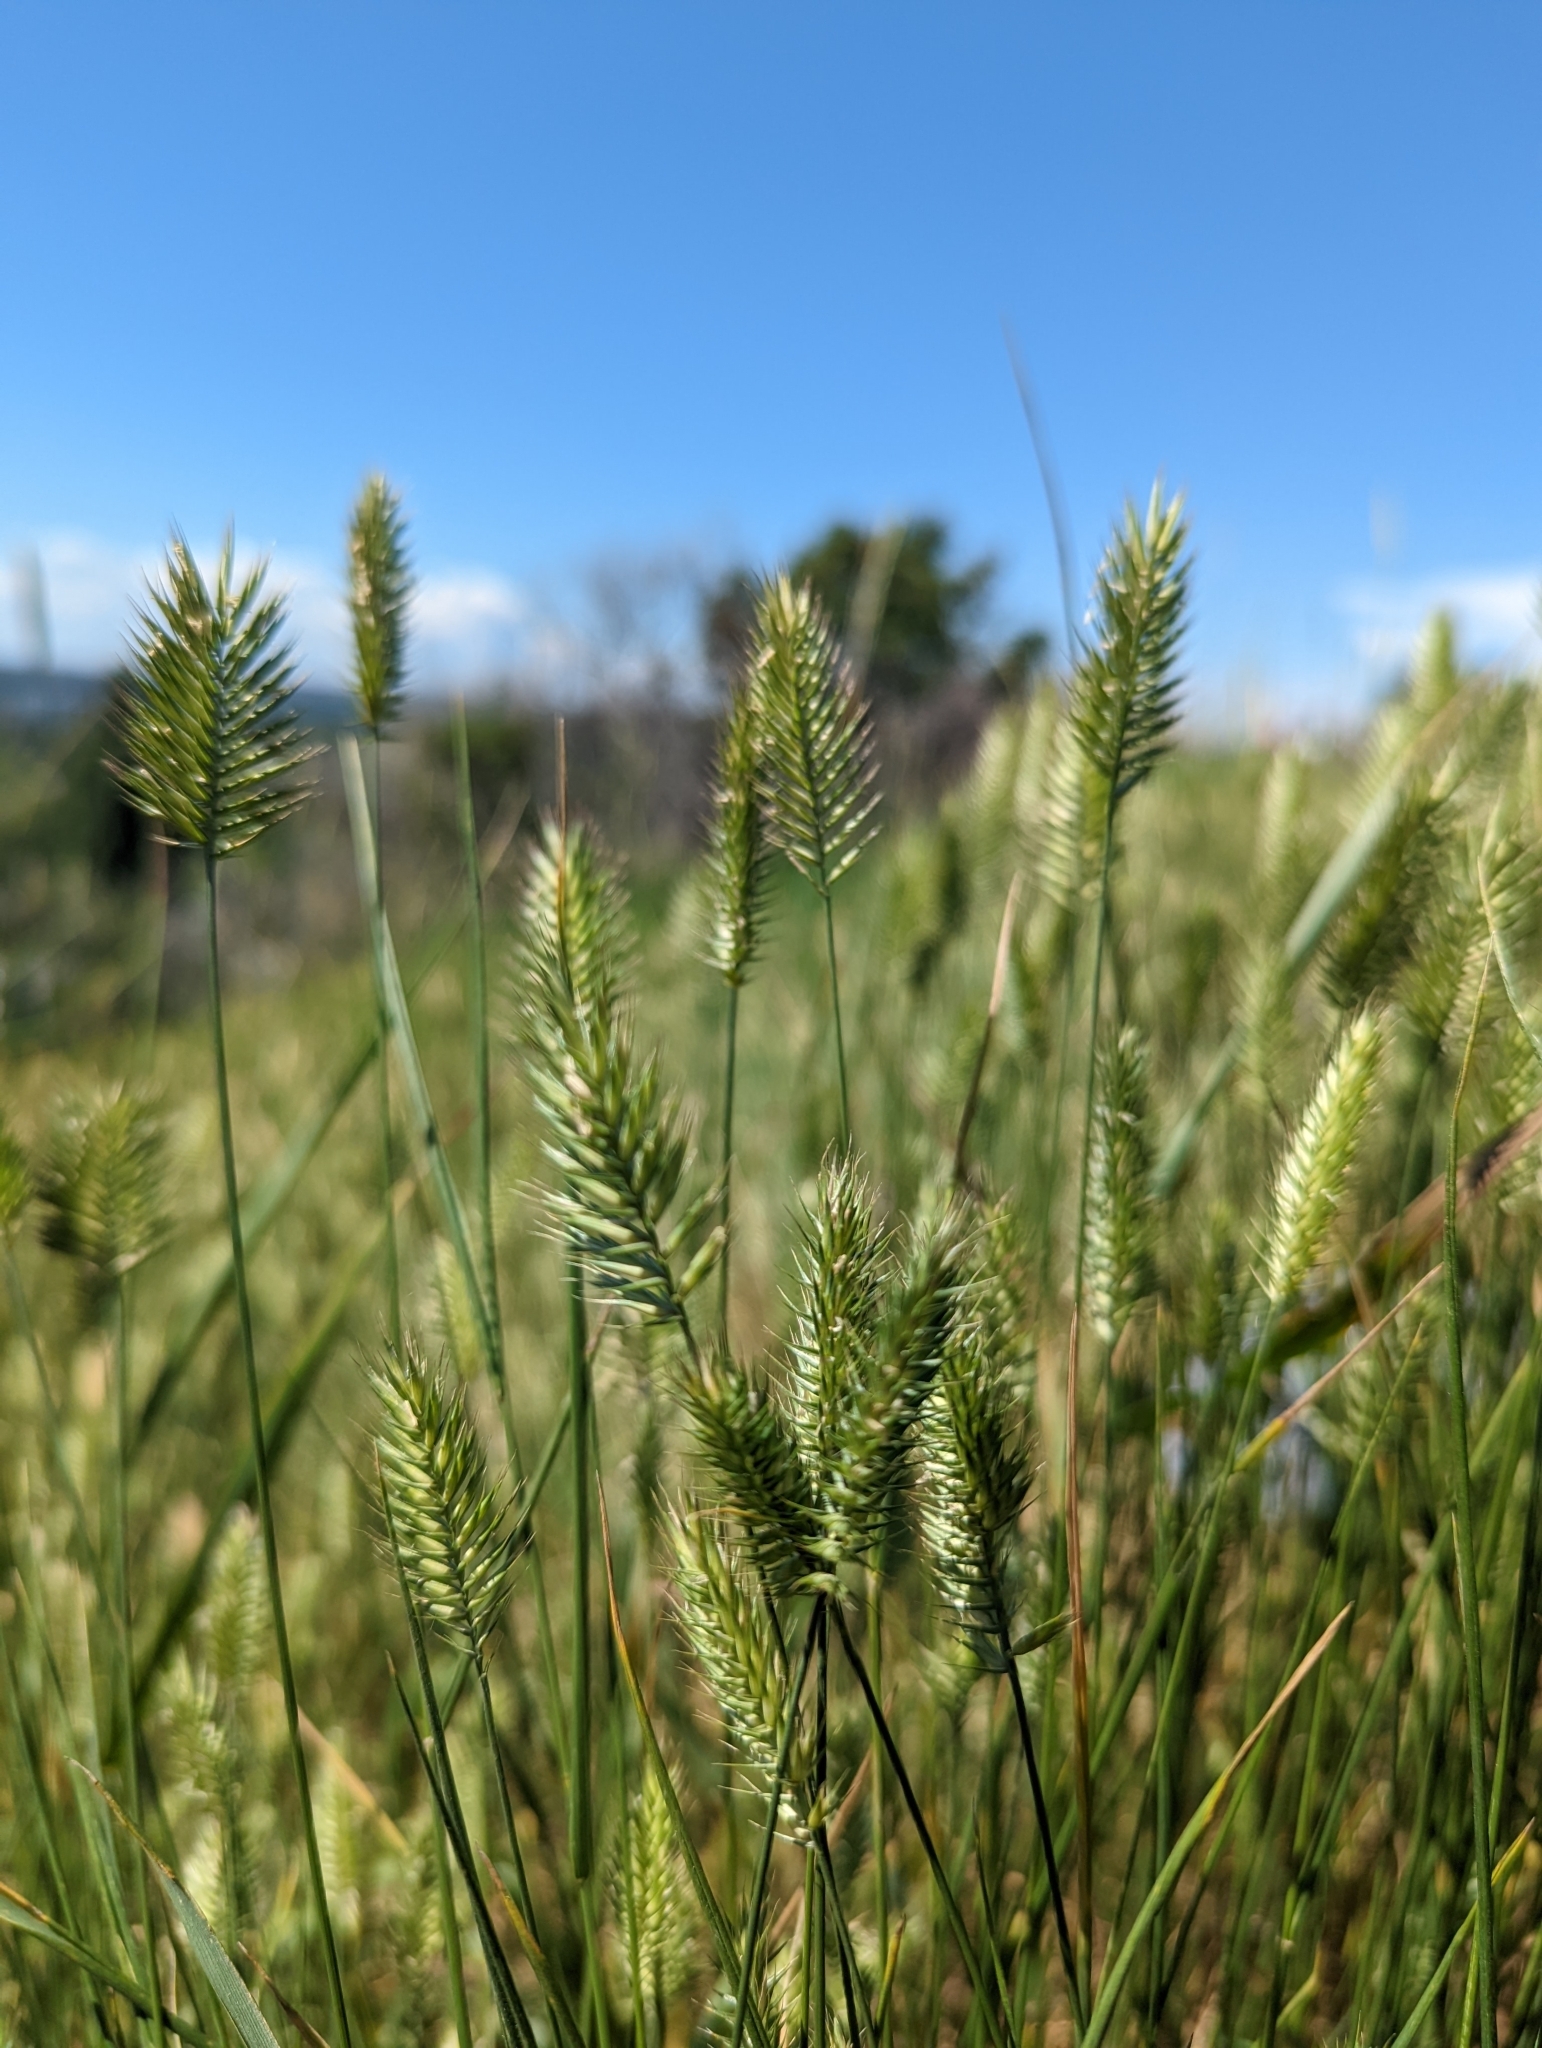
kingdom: Plantae
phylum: Tracheophyta
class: Liliopsida
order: Poales
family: Poaceae
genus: Agropyron
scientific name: Agropyron cristatum
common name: Crested wheatgrass
